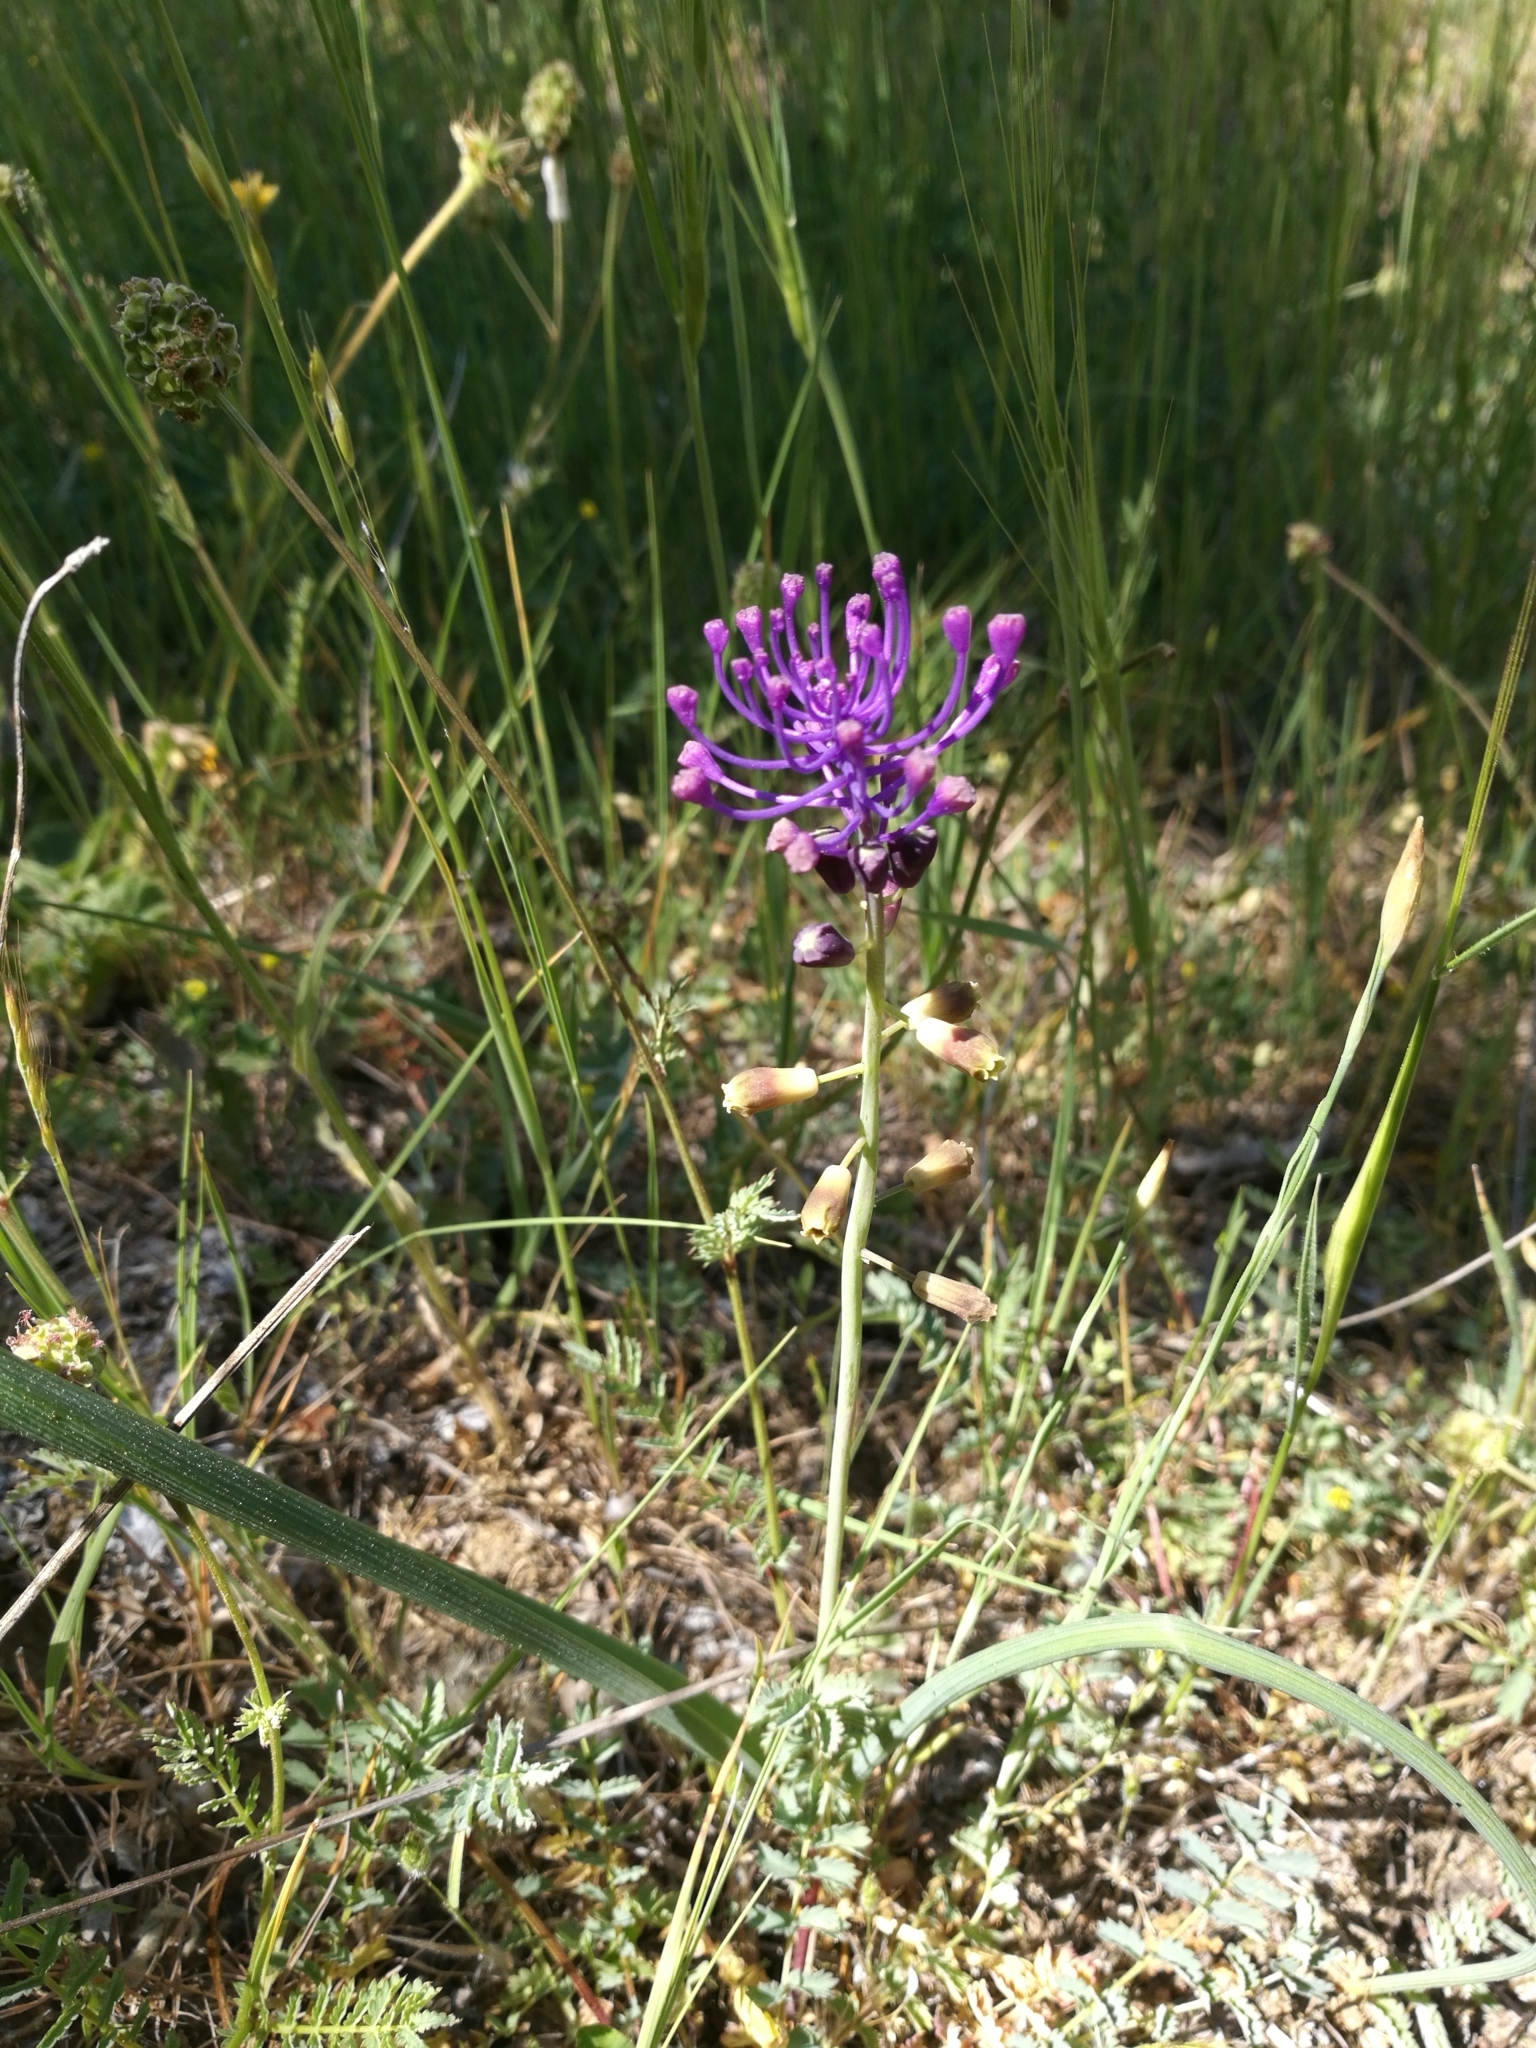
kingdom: Plantae
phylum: Tracheophyta
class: Liliopsida
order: Asparagales
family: Asparagaceae
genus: Muscari
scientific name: Muscari comosum
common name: Tassel hyacinth
